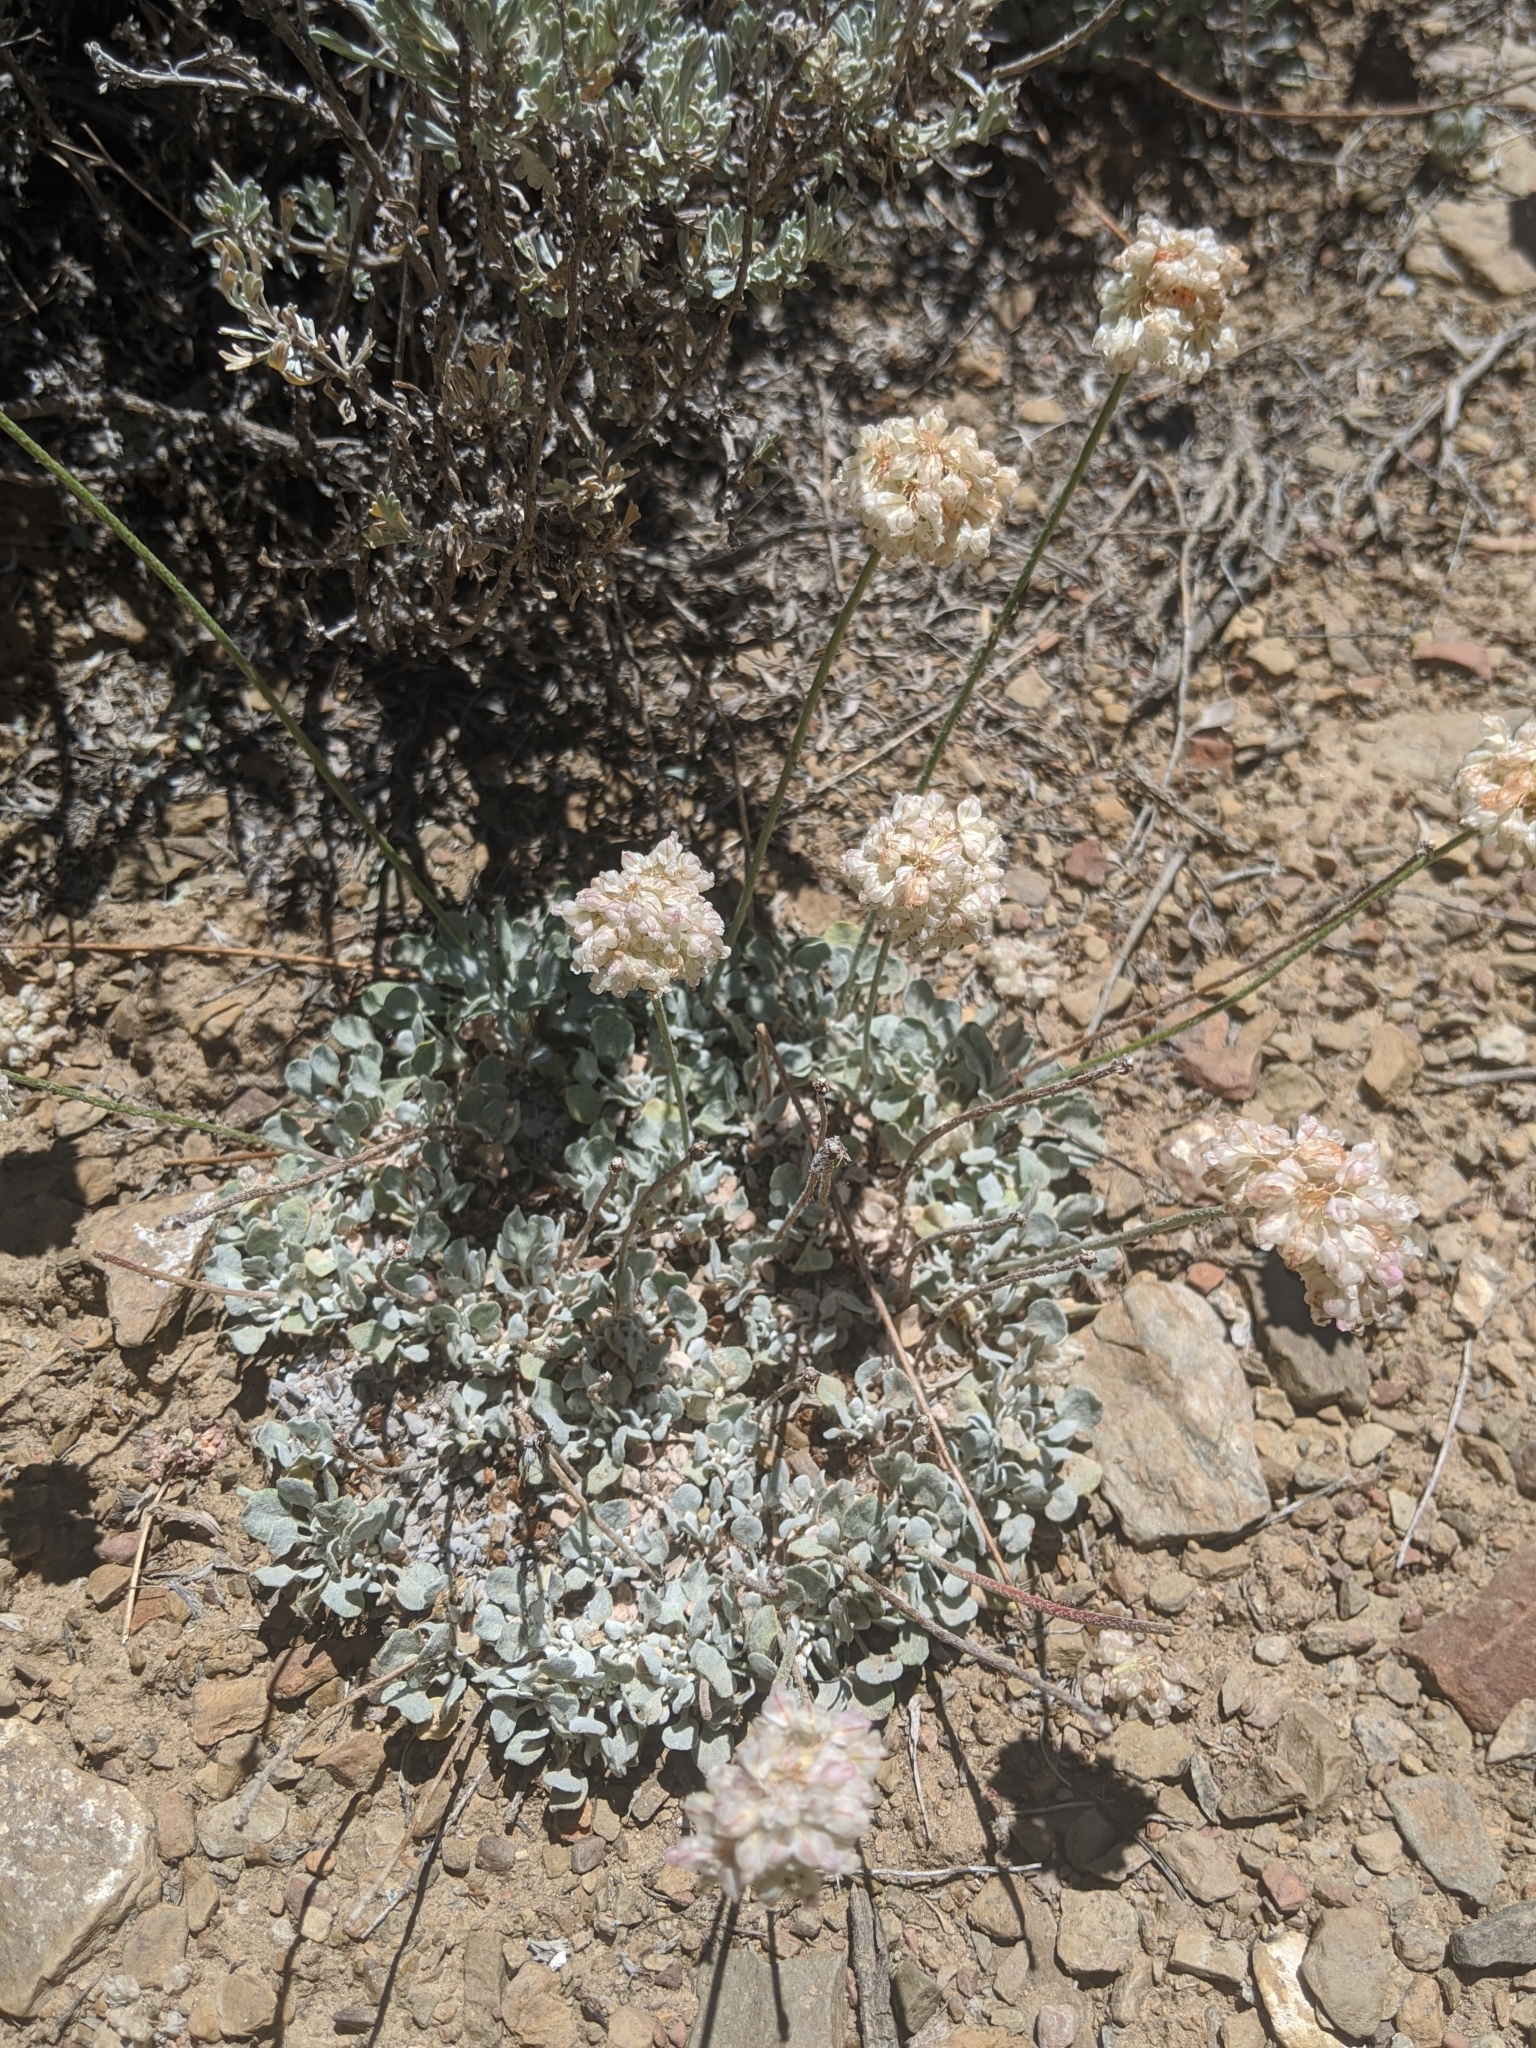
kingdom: Plantae
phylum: Tracheophyta
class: Magnoliopsida
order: Caryophyllales
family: Polygonaceae
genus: Eriogonum
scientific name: Eriogonum ovalifolium
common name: Cushion buckwheat
